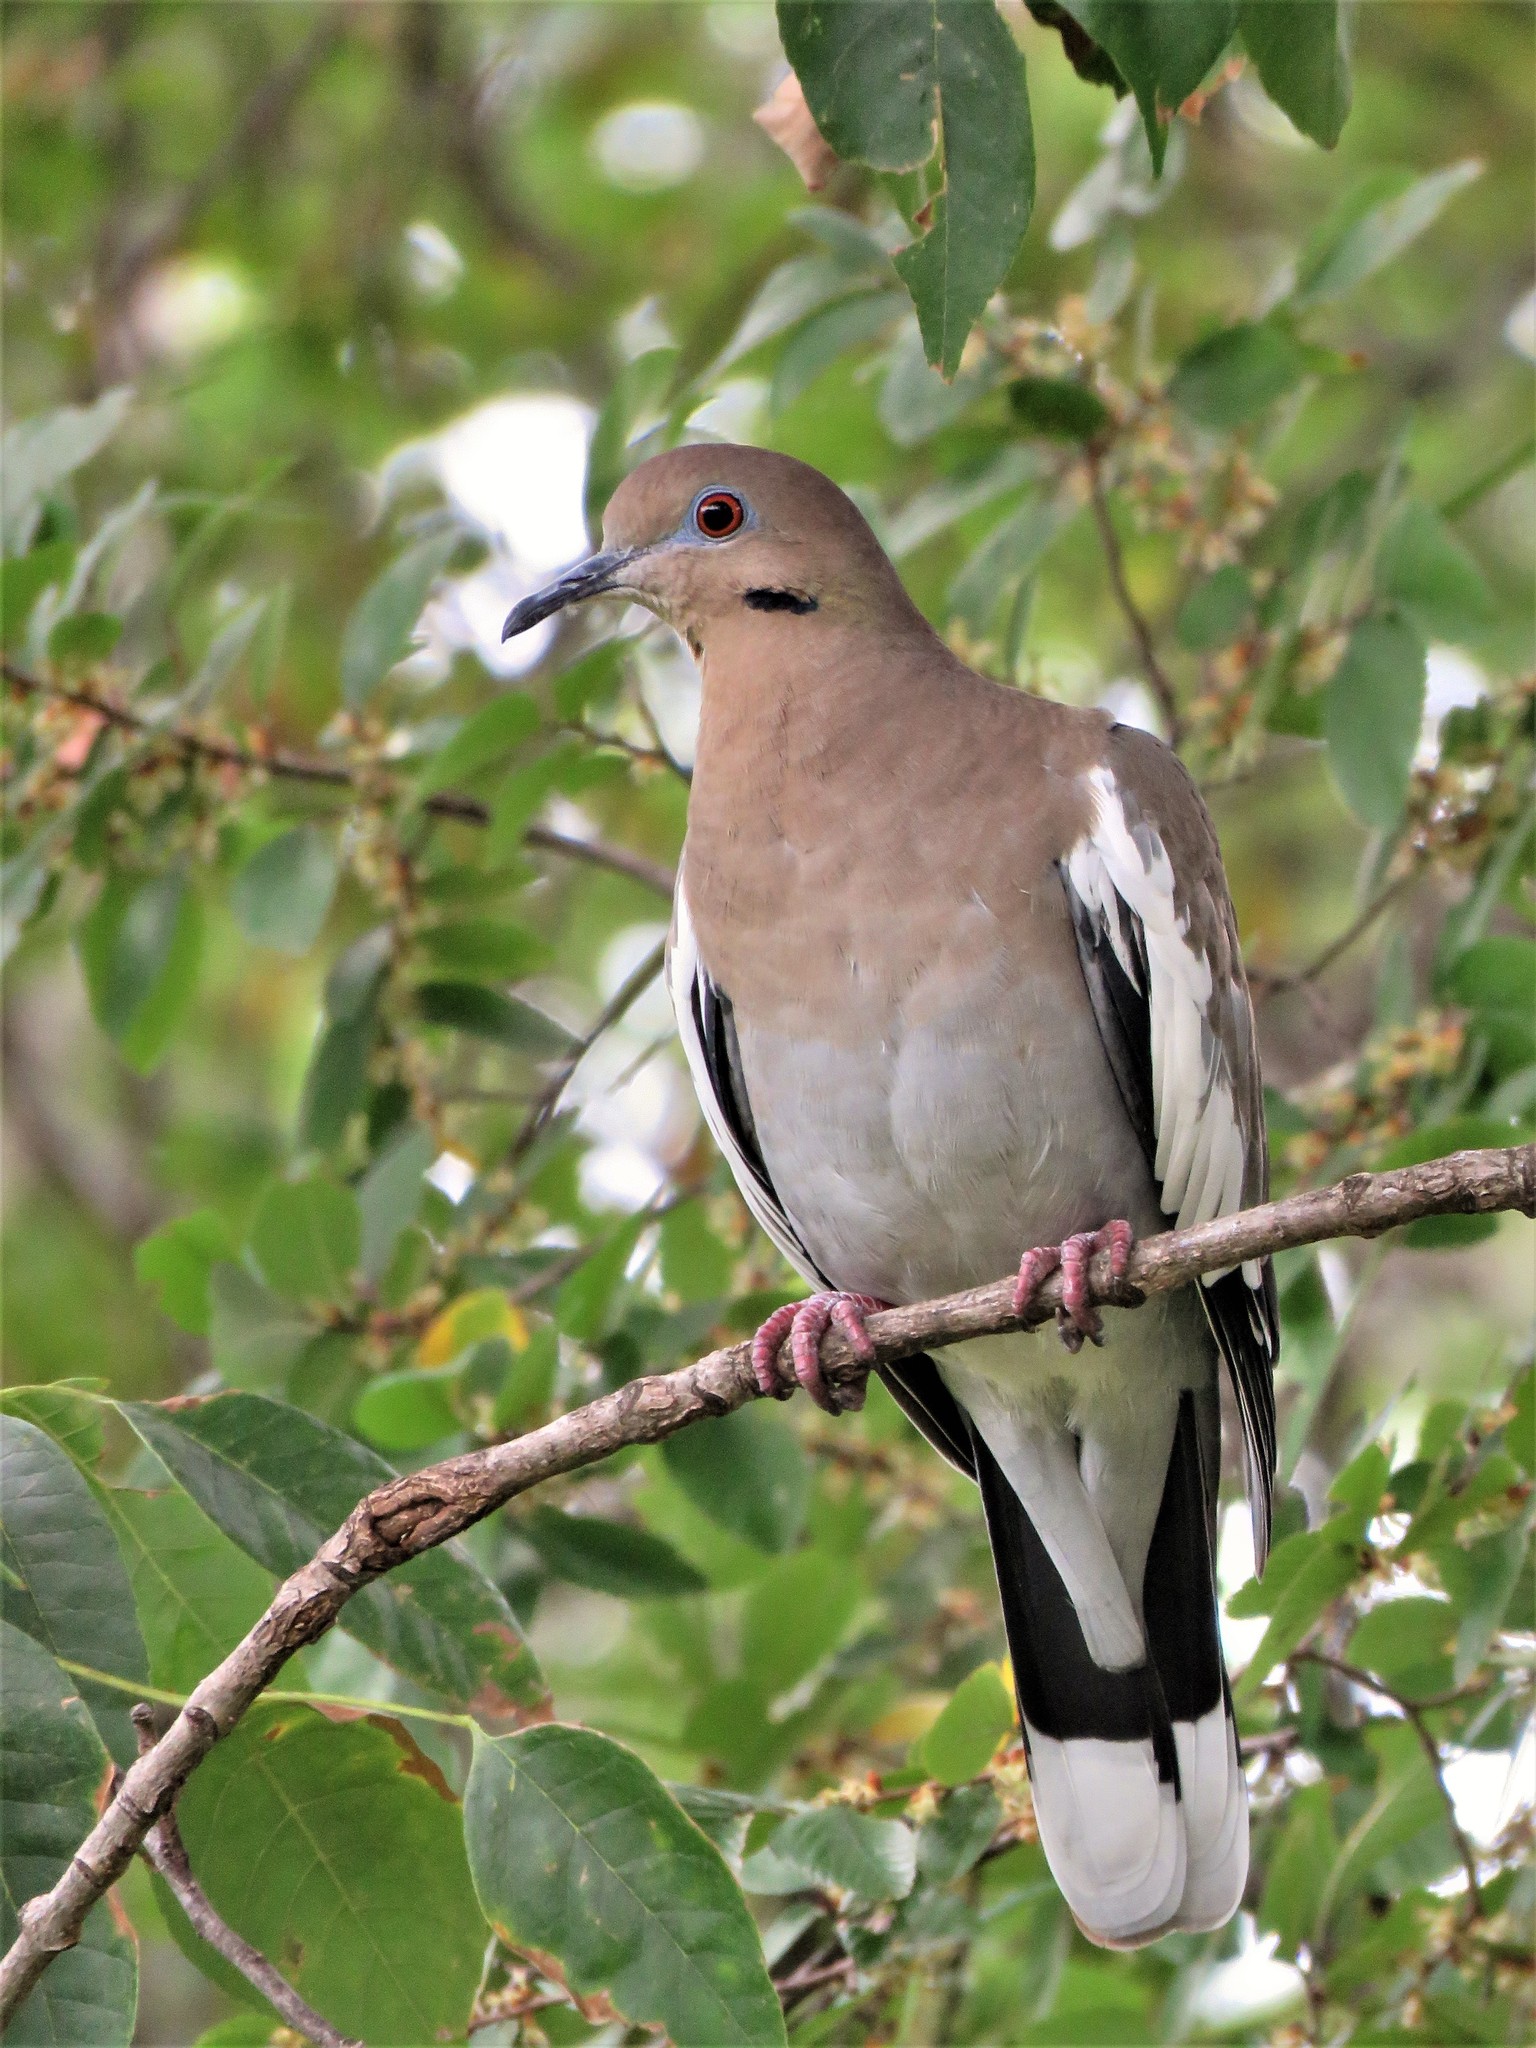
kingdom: Animalia
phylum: Chordata
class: Aves
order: Columbiformes
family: Columbidae
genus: Zenaida
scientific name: Zenaida asiatica
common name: White-winged dove
